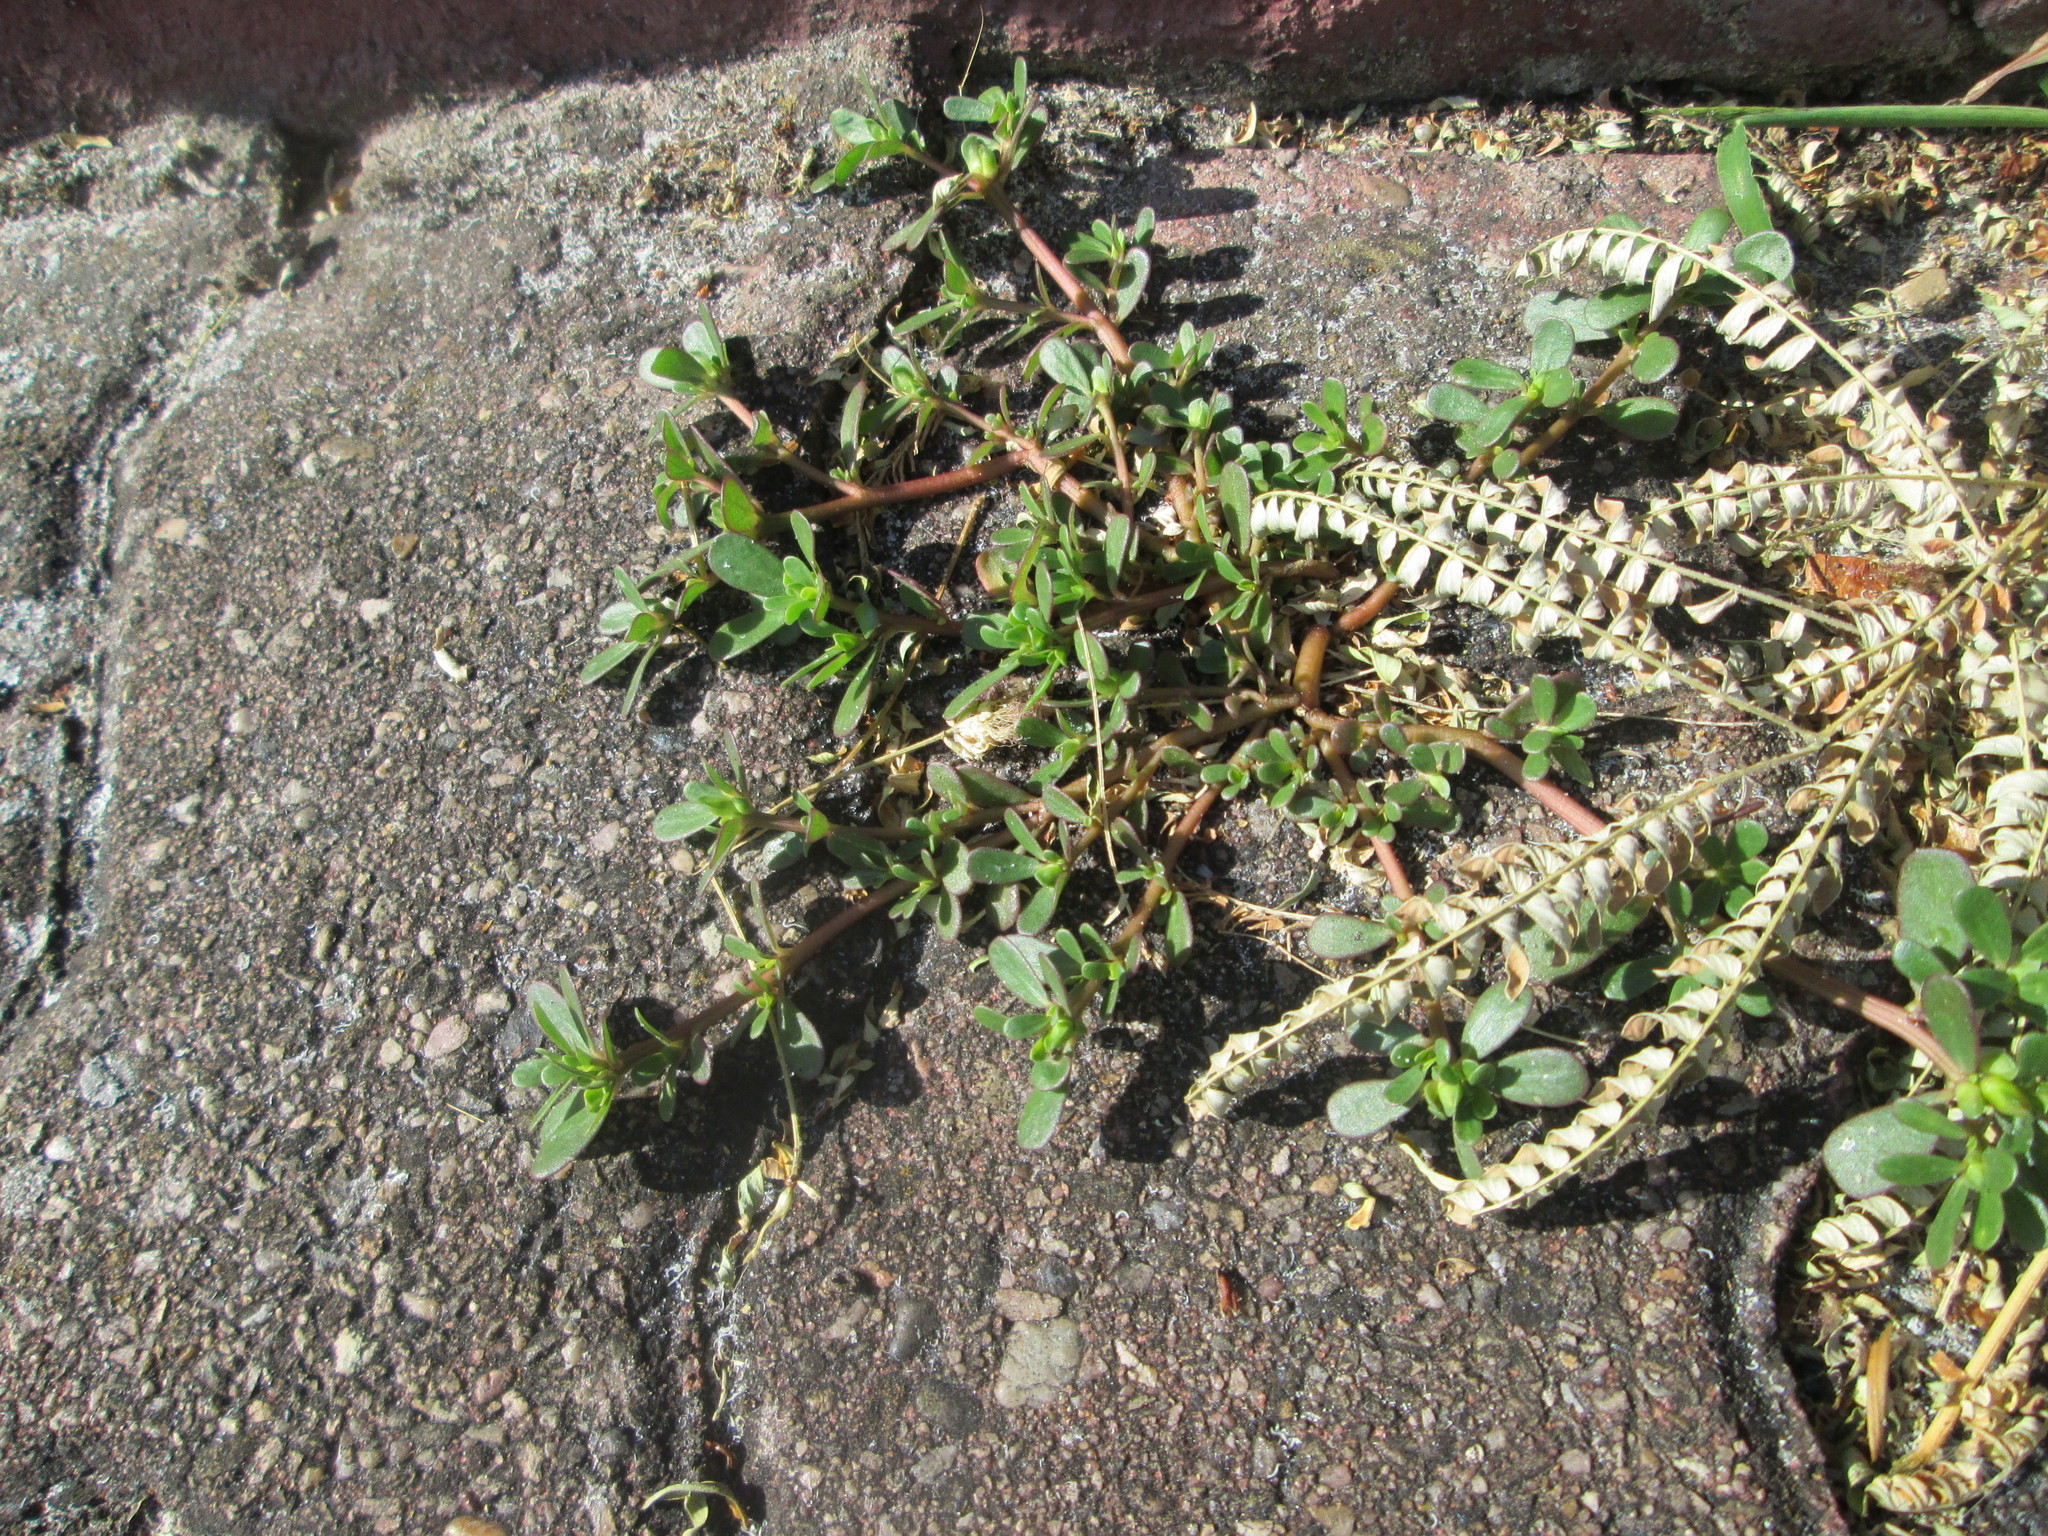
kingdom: Plantae
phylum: Tracheophyta
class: Magnoliopsida
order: Caryophyllales
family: Portulacaceae
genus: Portulaca
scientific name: Portulaca oleracea
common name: Common purslane
